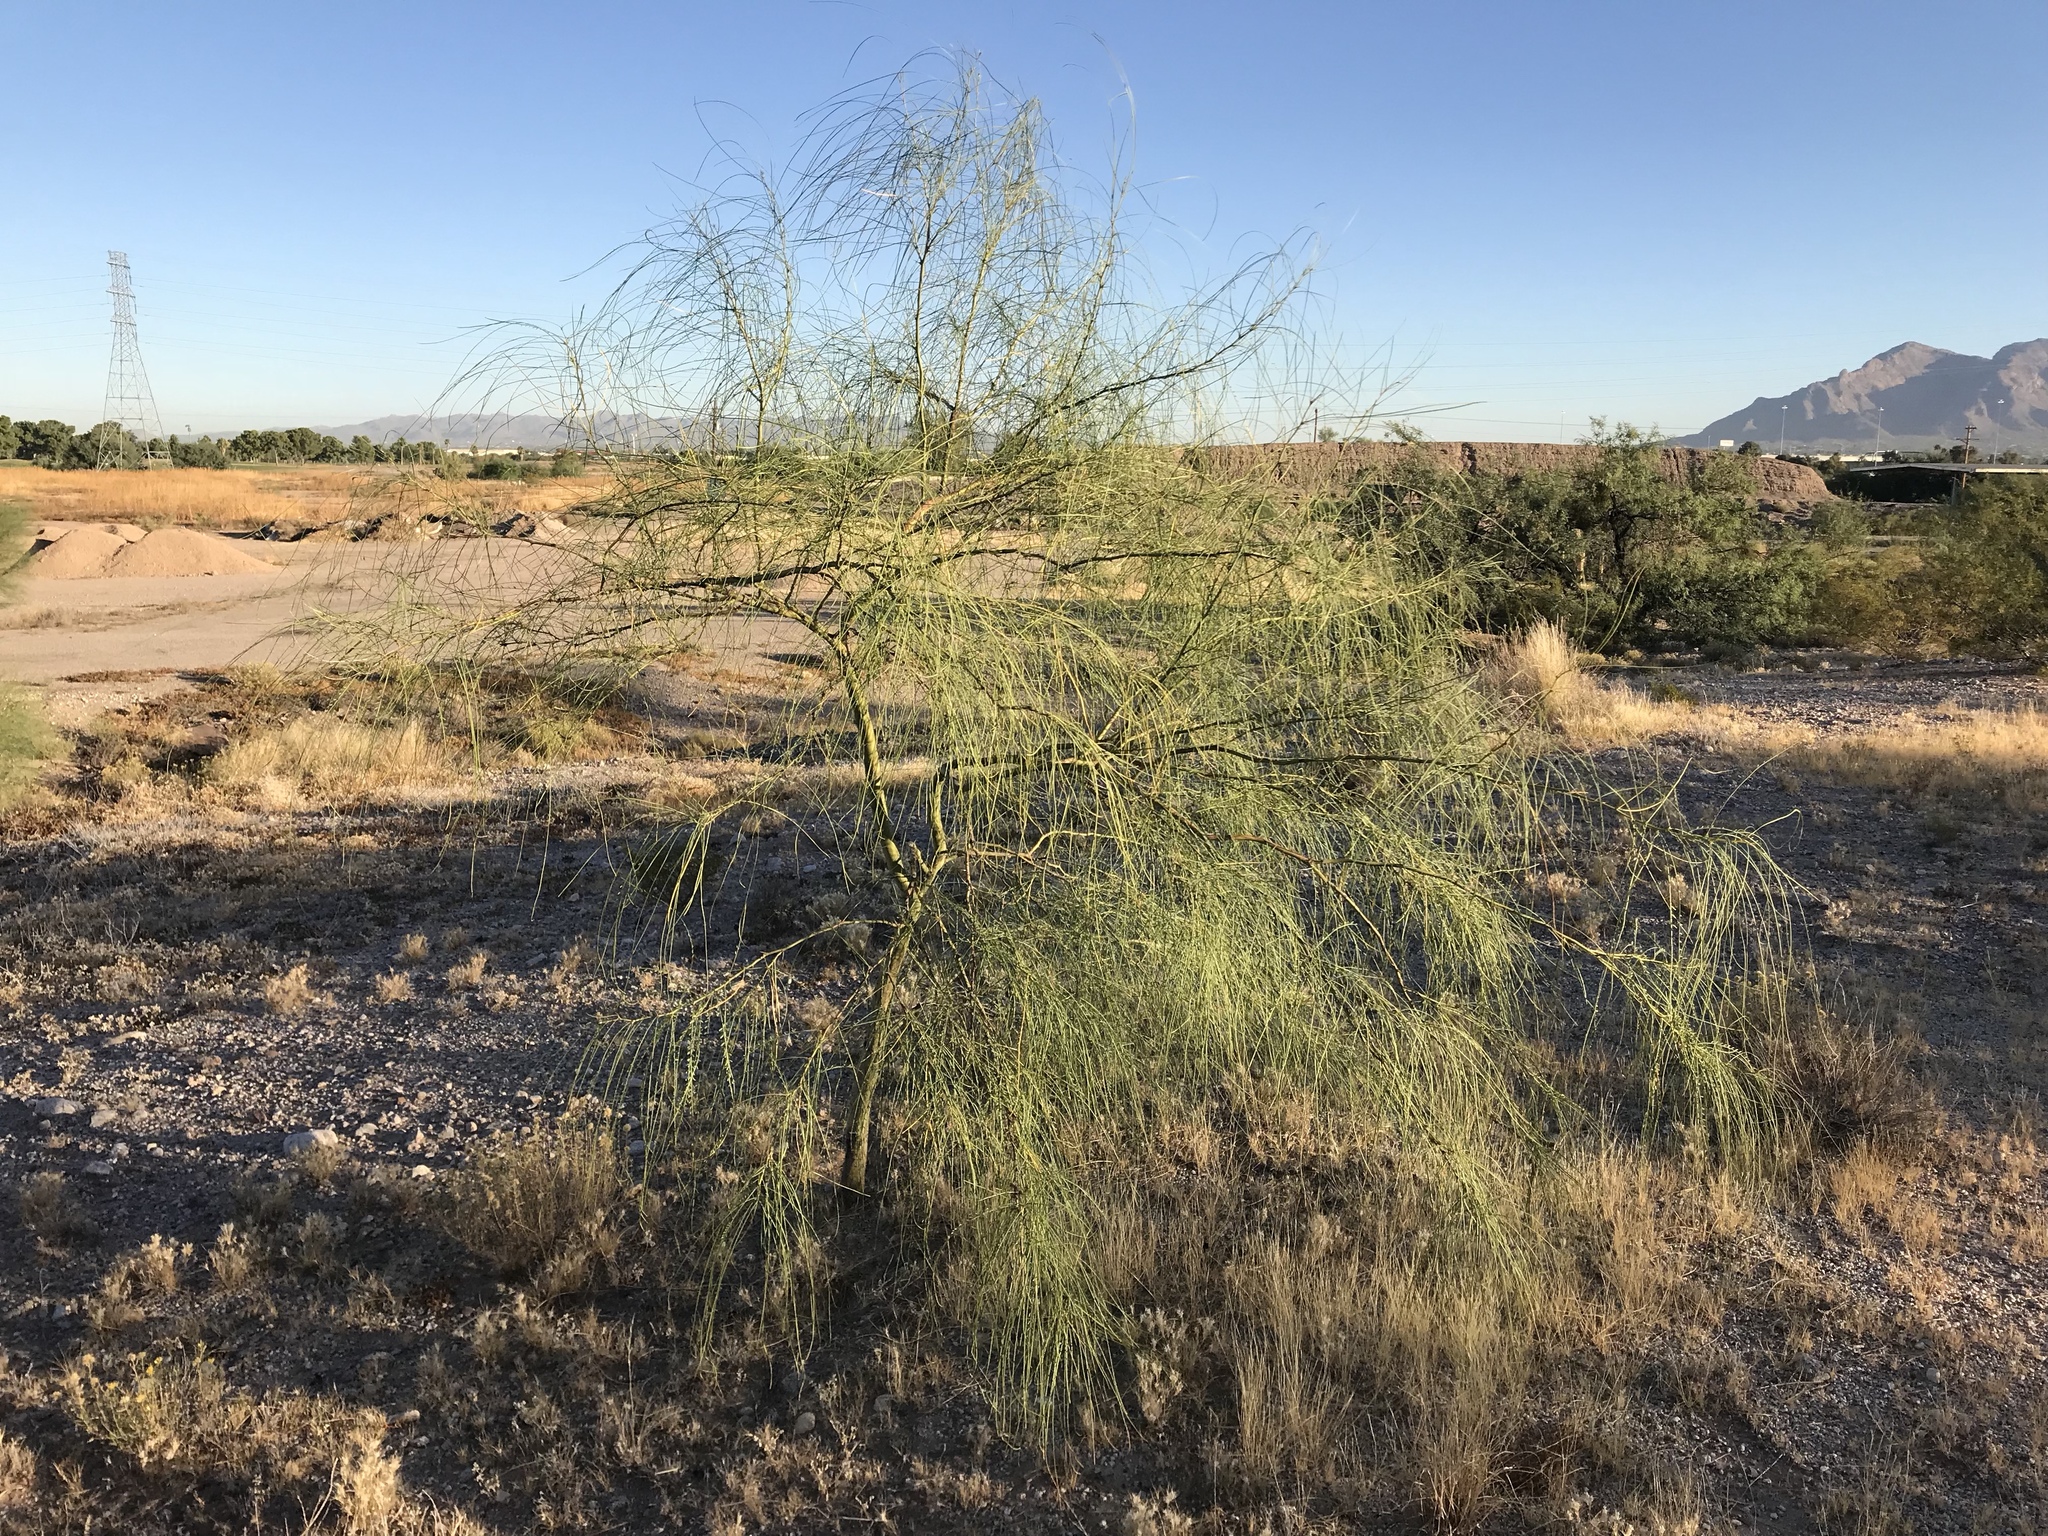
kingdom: Plantae
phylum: Tracheophyta
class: Magnoliopsida
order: Fabales
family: Fabaceae
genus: Parkinsonia
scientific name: Parkinsonia aculeata
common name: Jerusalem thorn
